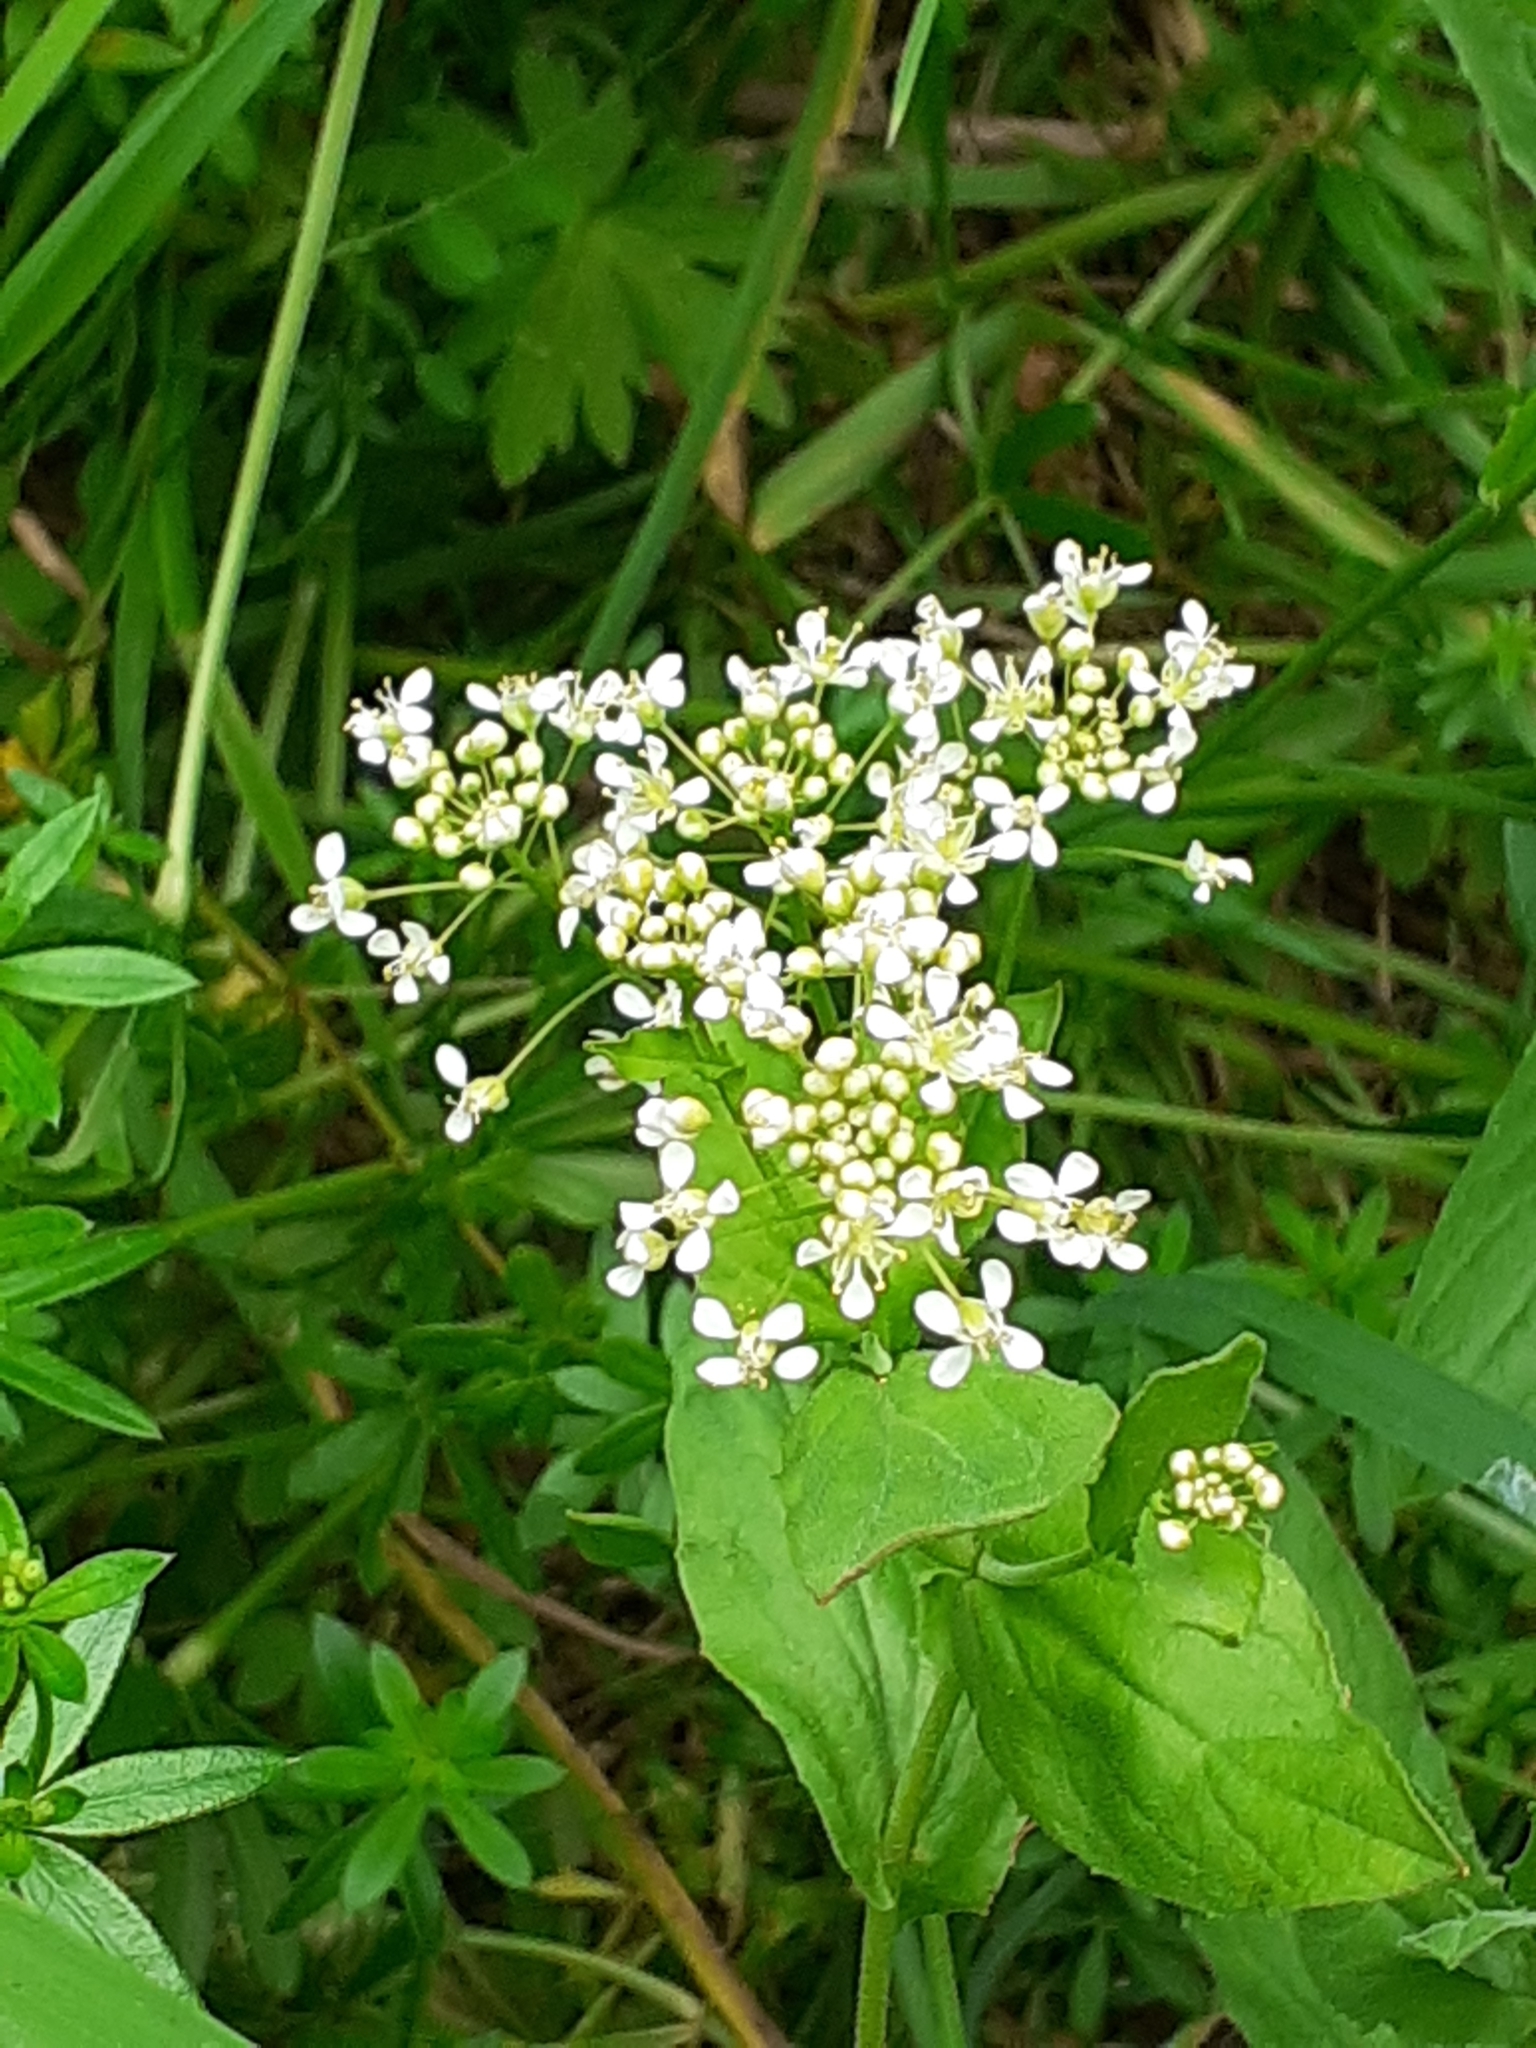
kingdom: Plantae
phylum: Tracheophyta
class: Magnoliopsida
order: Brassicales
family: Brassicaceae
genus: Lepidium
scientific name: Lepidium draba
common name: Hoary cress
